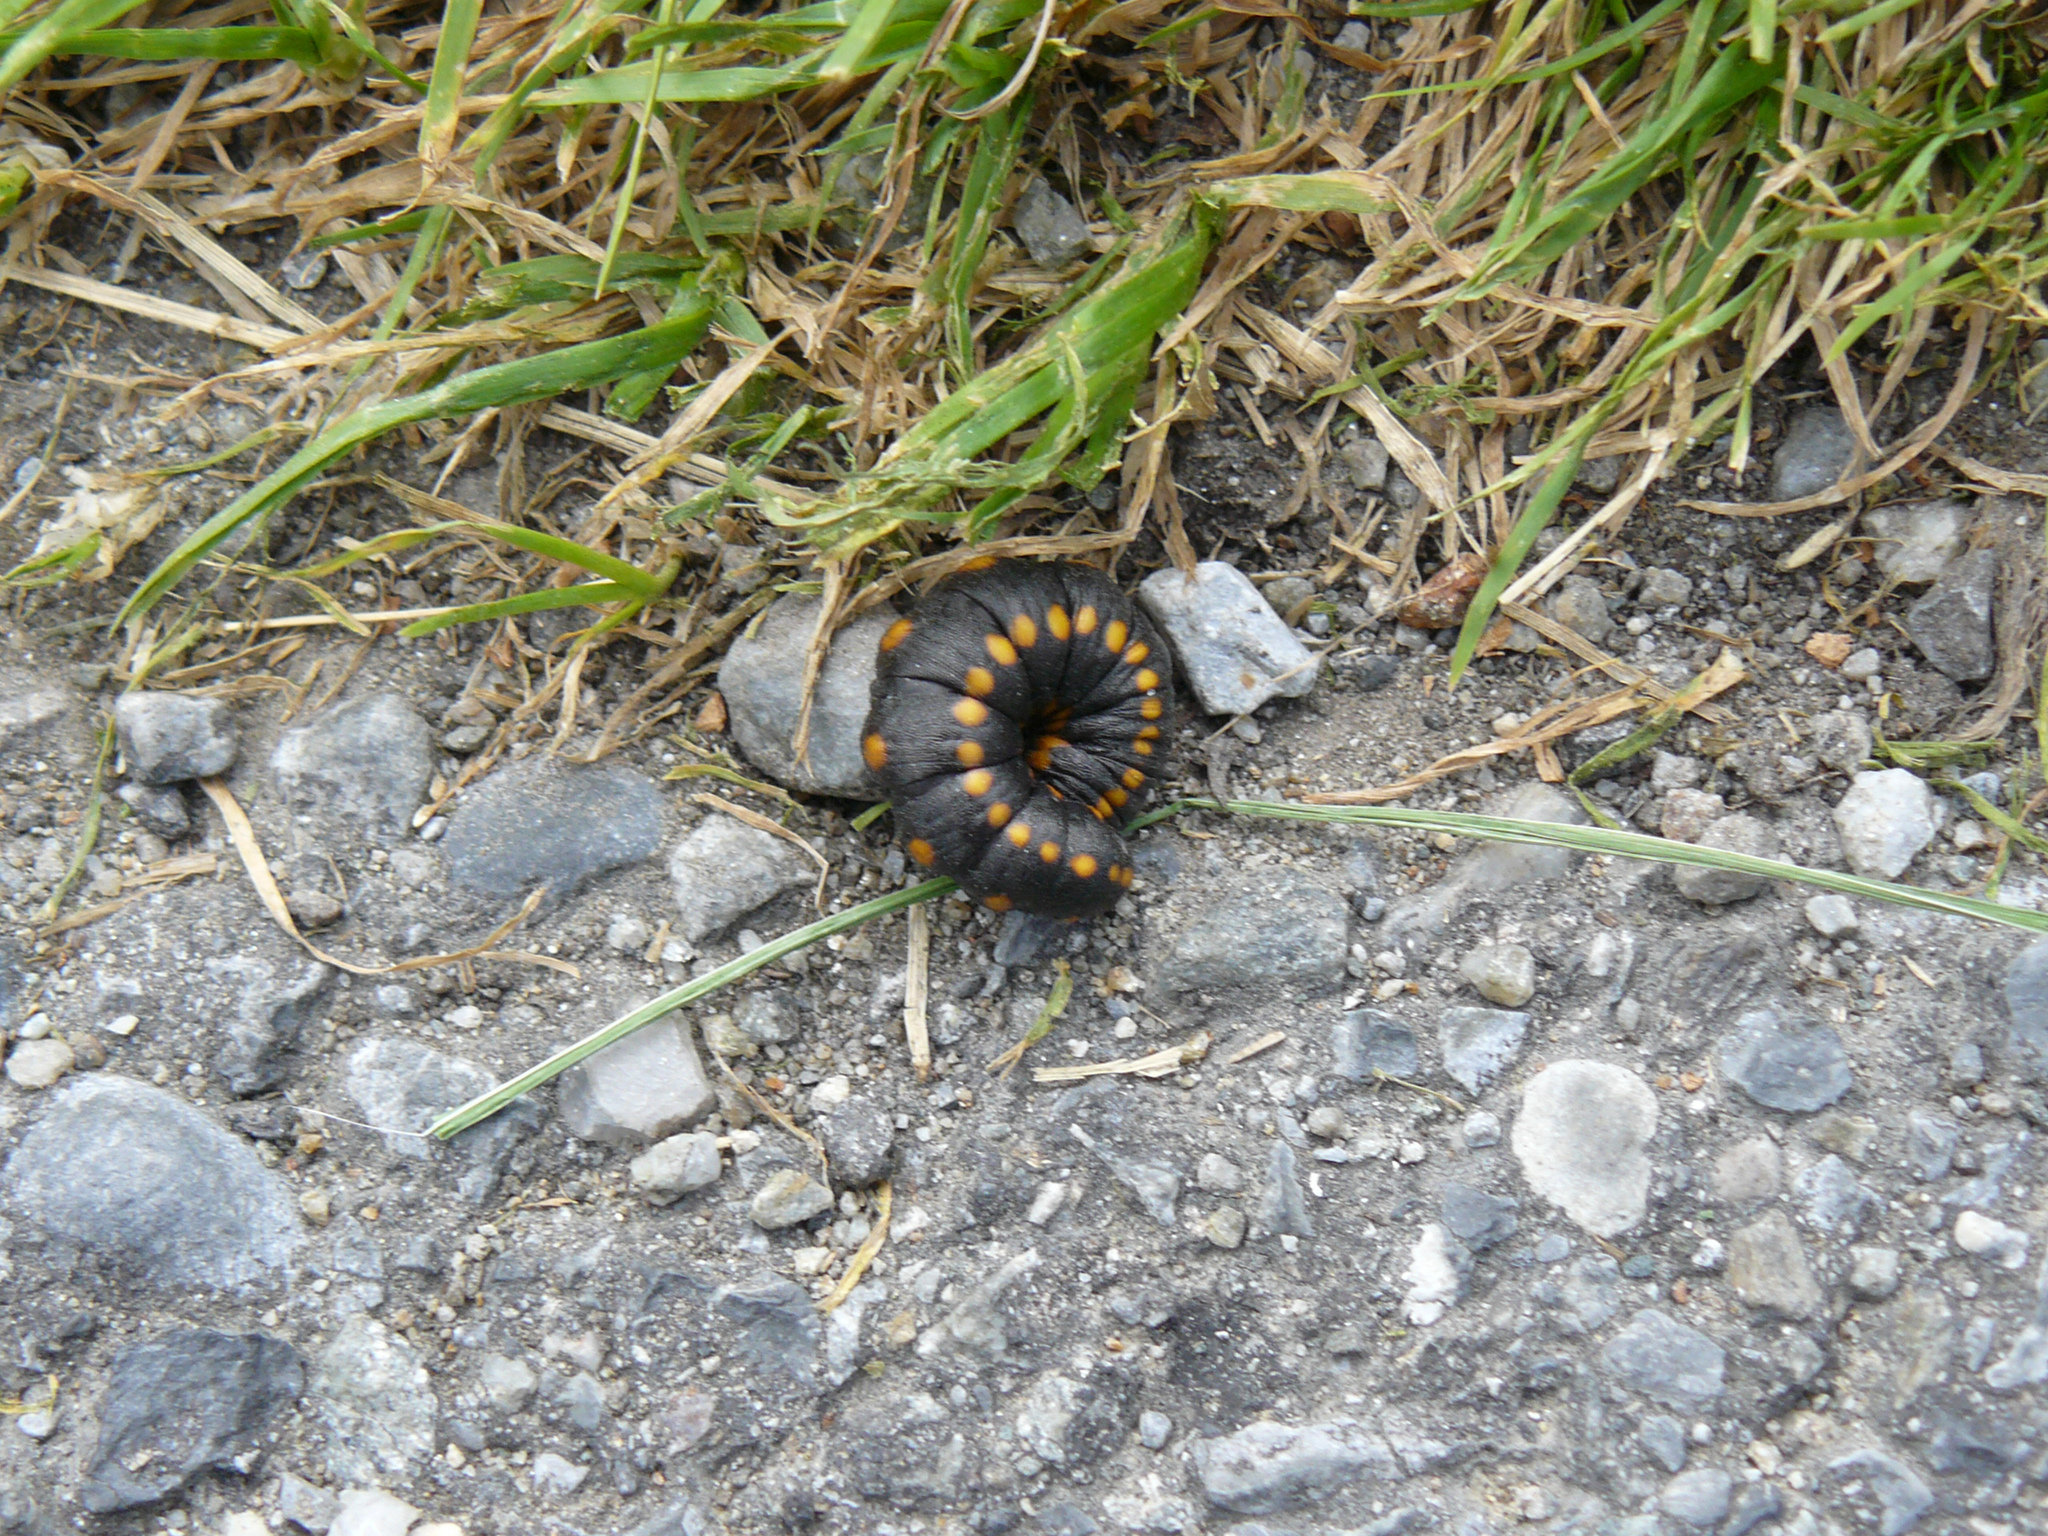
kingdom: Animalia
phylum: Arthropoda
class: Insecta
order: Lepidoptera
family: Noctuidae
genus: Cucullia
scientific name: Cucullia lucifuga
